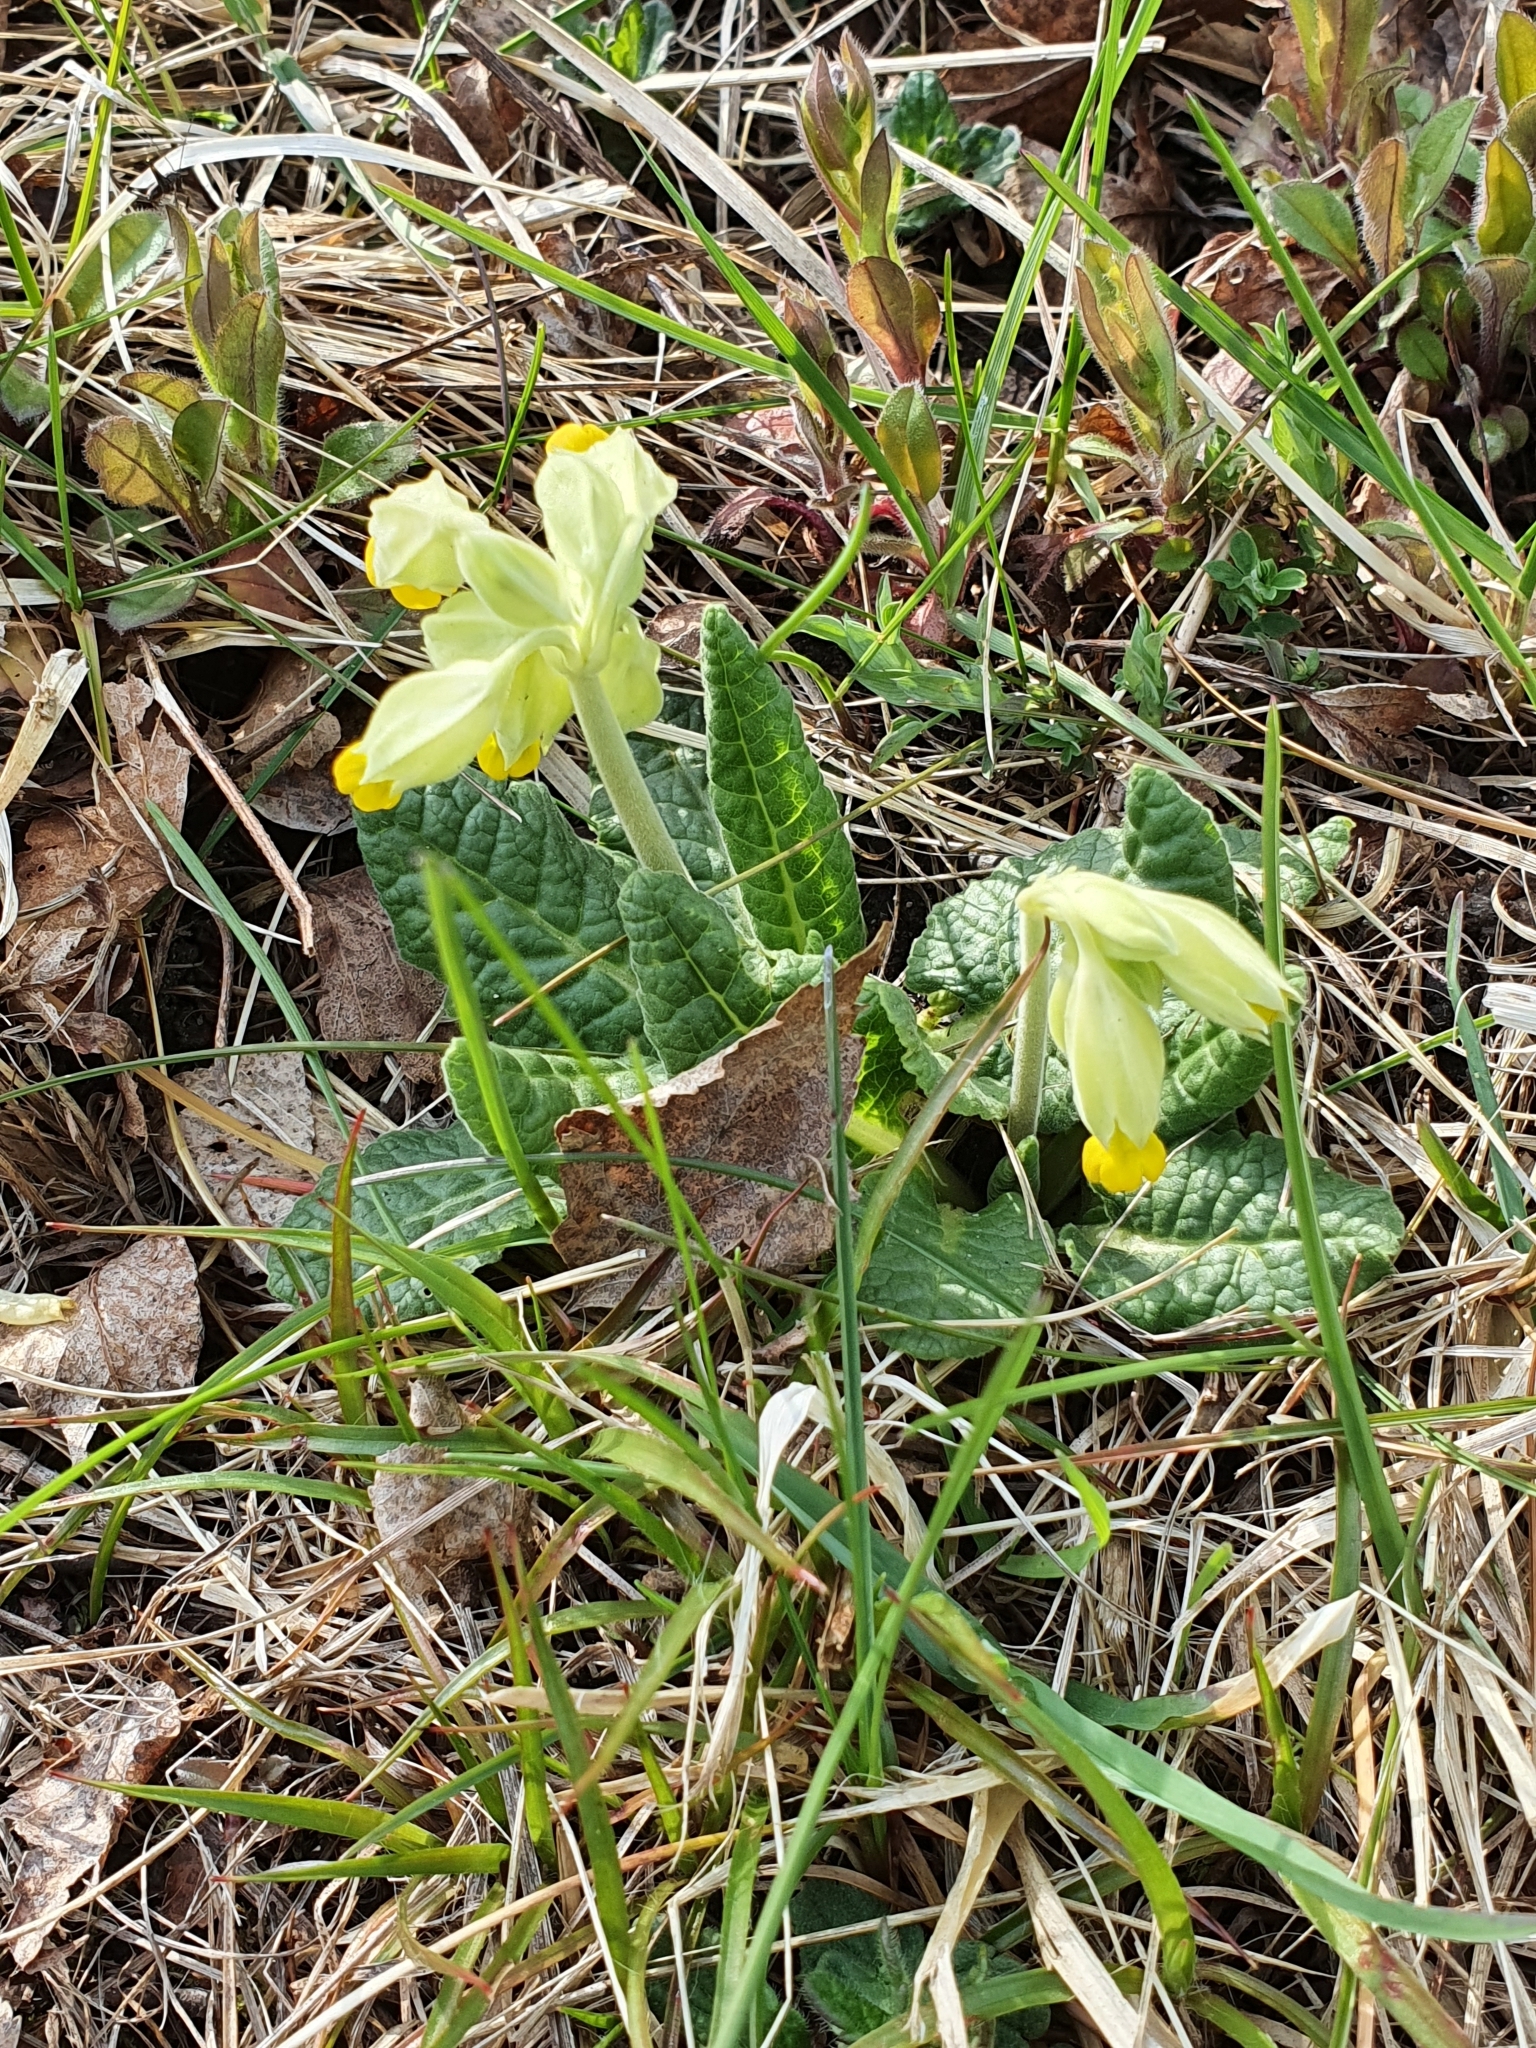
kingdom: Plantae
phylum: Tracheophyta
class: Magnoliopsida
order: Ericales
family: Primulaceae
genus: Primula
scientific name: Primula veris
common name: Cowslip
